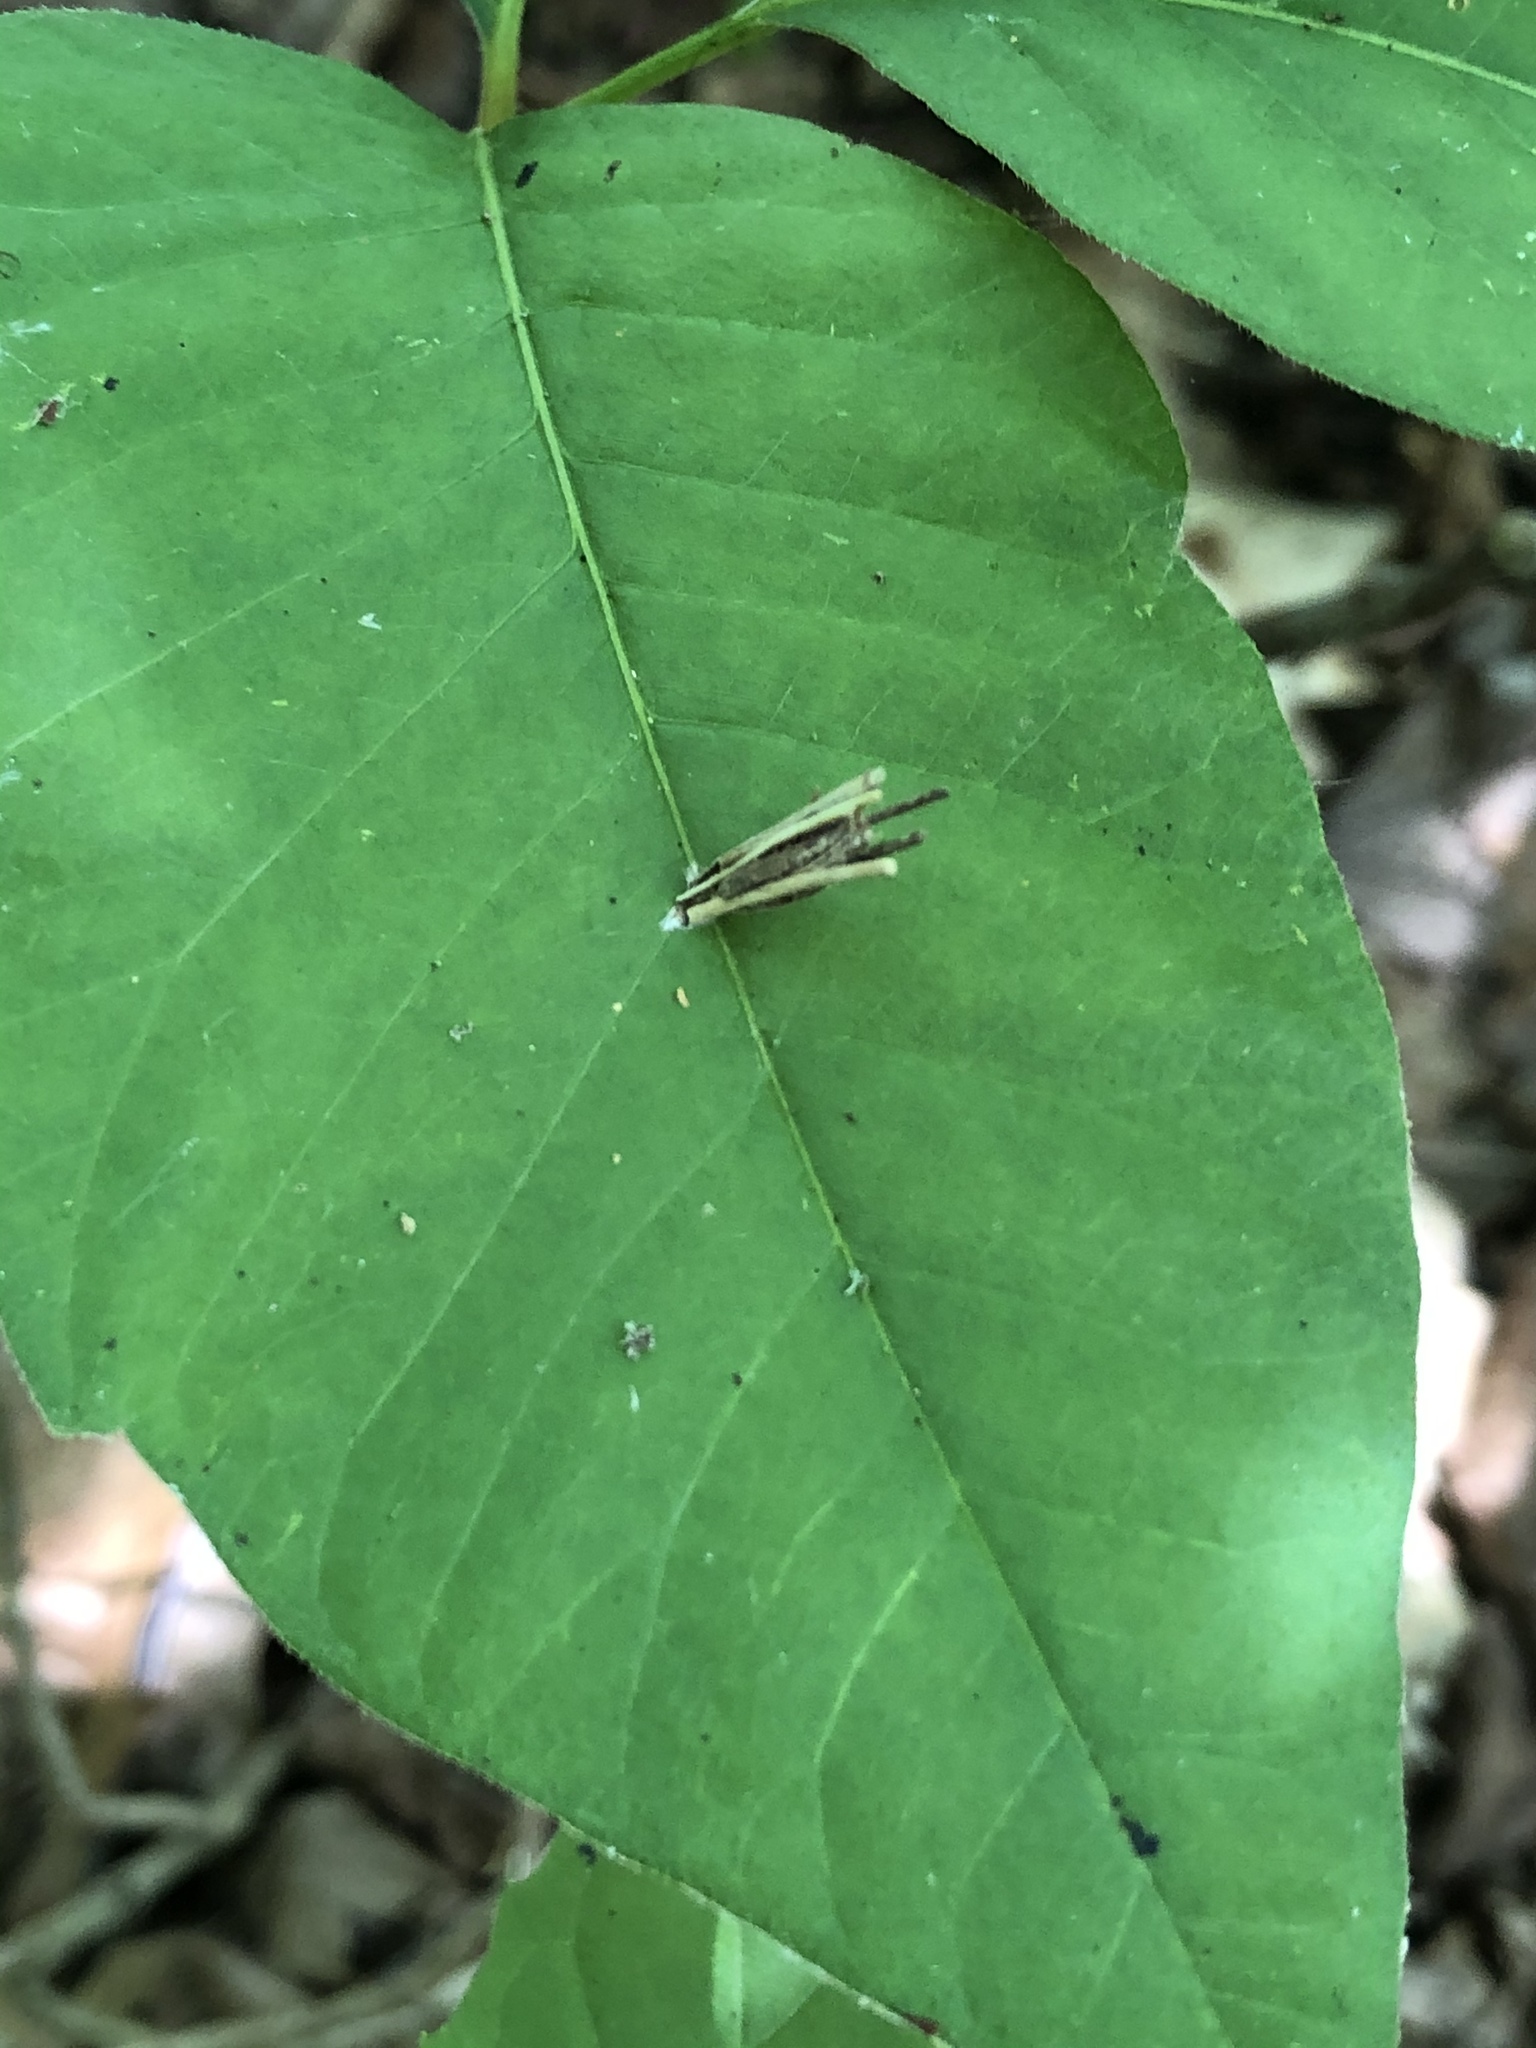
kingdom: Animalia
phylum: Arthropoda
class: Insecta
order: Lepidoptera
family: Psychidae
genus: Psyche
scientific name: Psyche casta
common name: Common sweep
